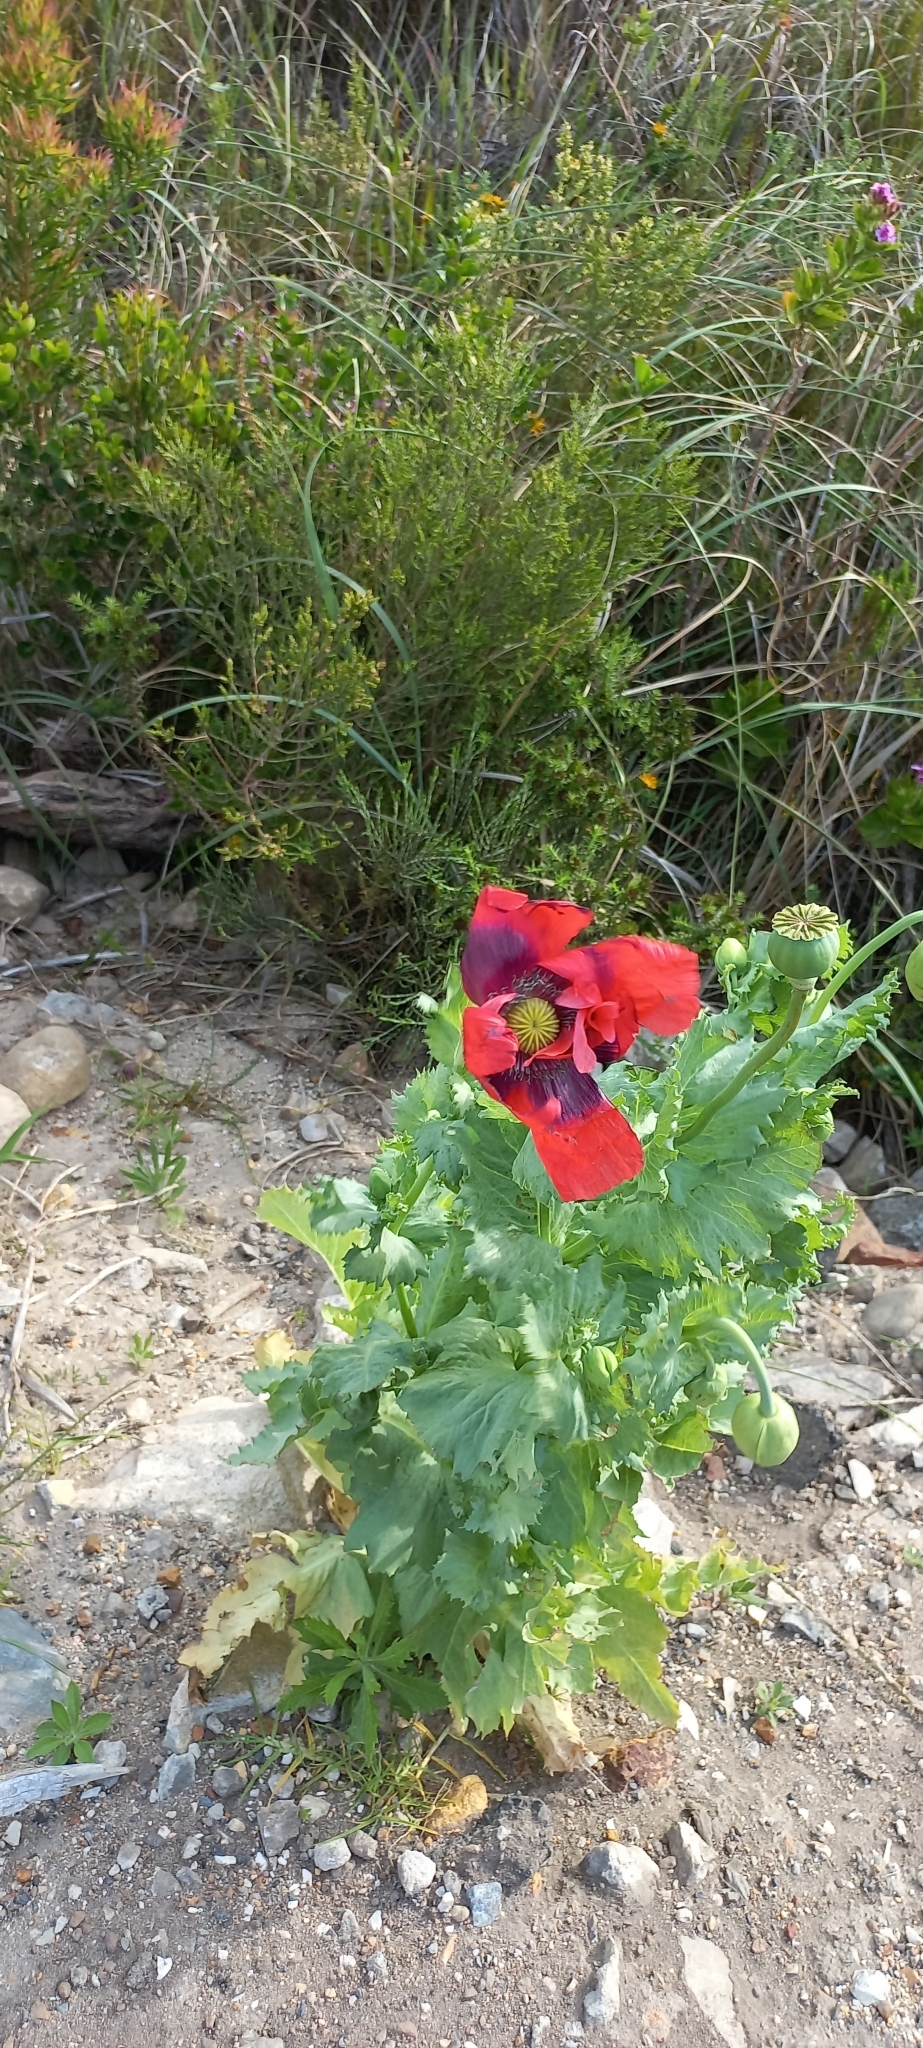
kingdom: Plantae
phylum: Tracheophyta
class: Magnoliopsida
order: Ranunculales
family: Papaveraceae
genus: Papaver
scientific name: Papaver somniferum
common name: Opium poppy
